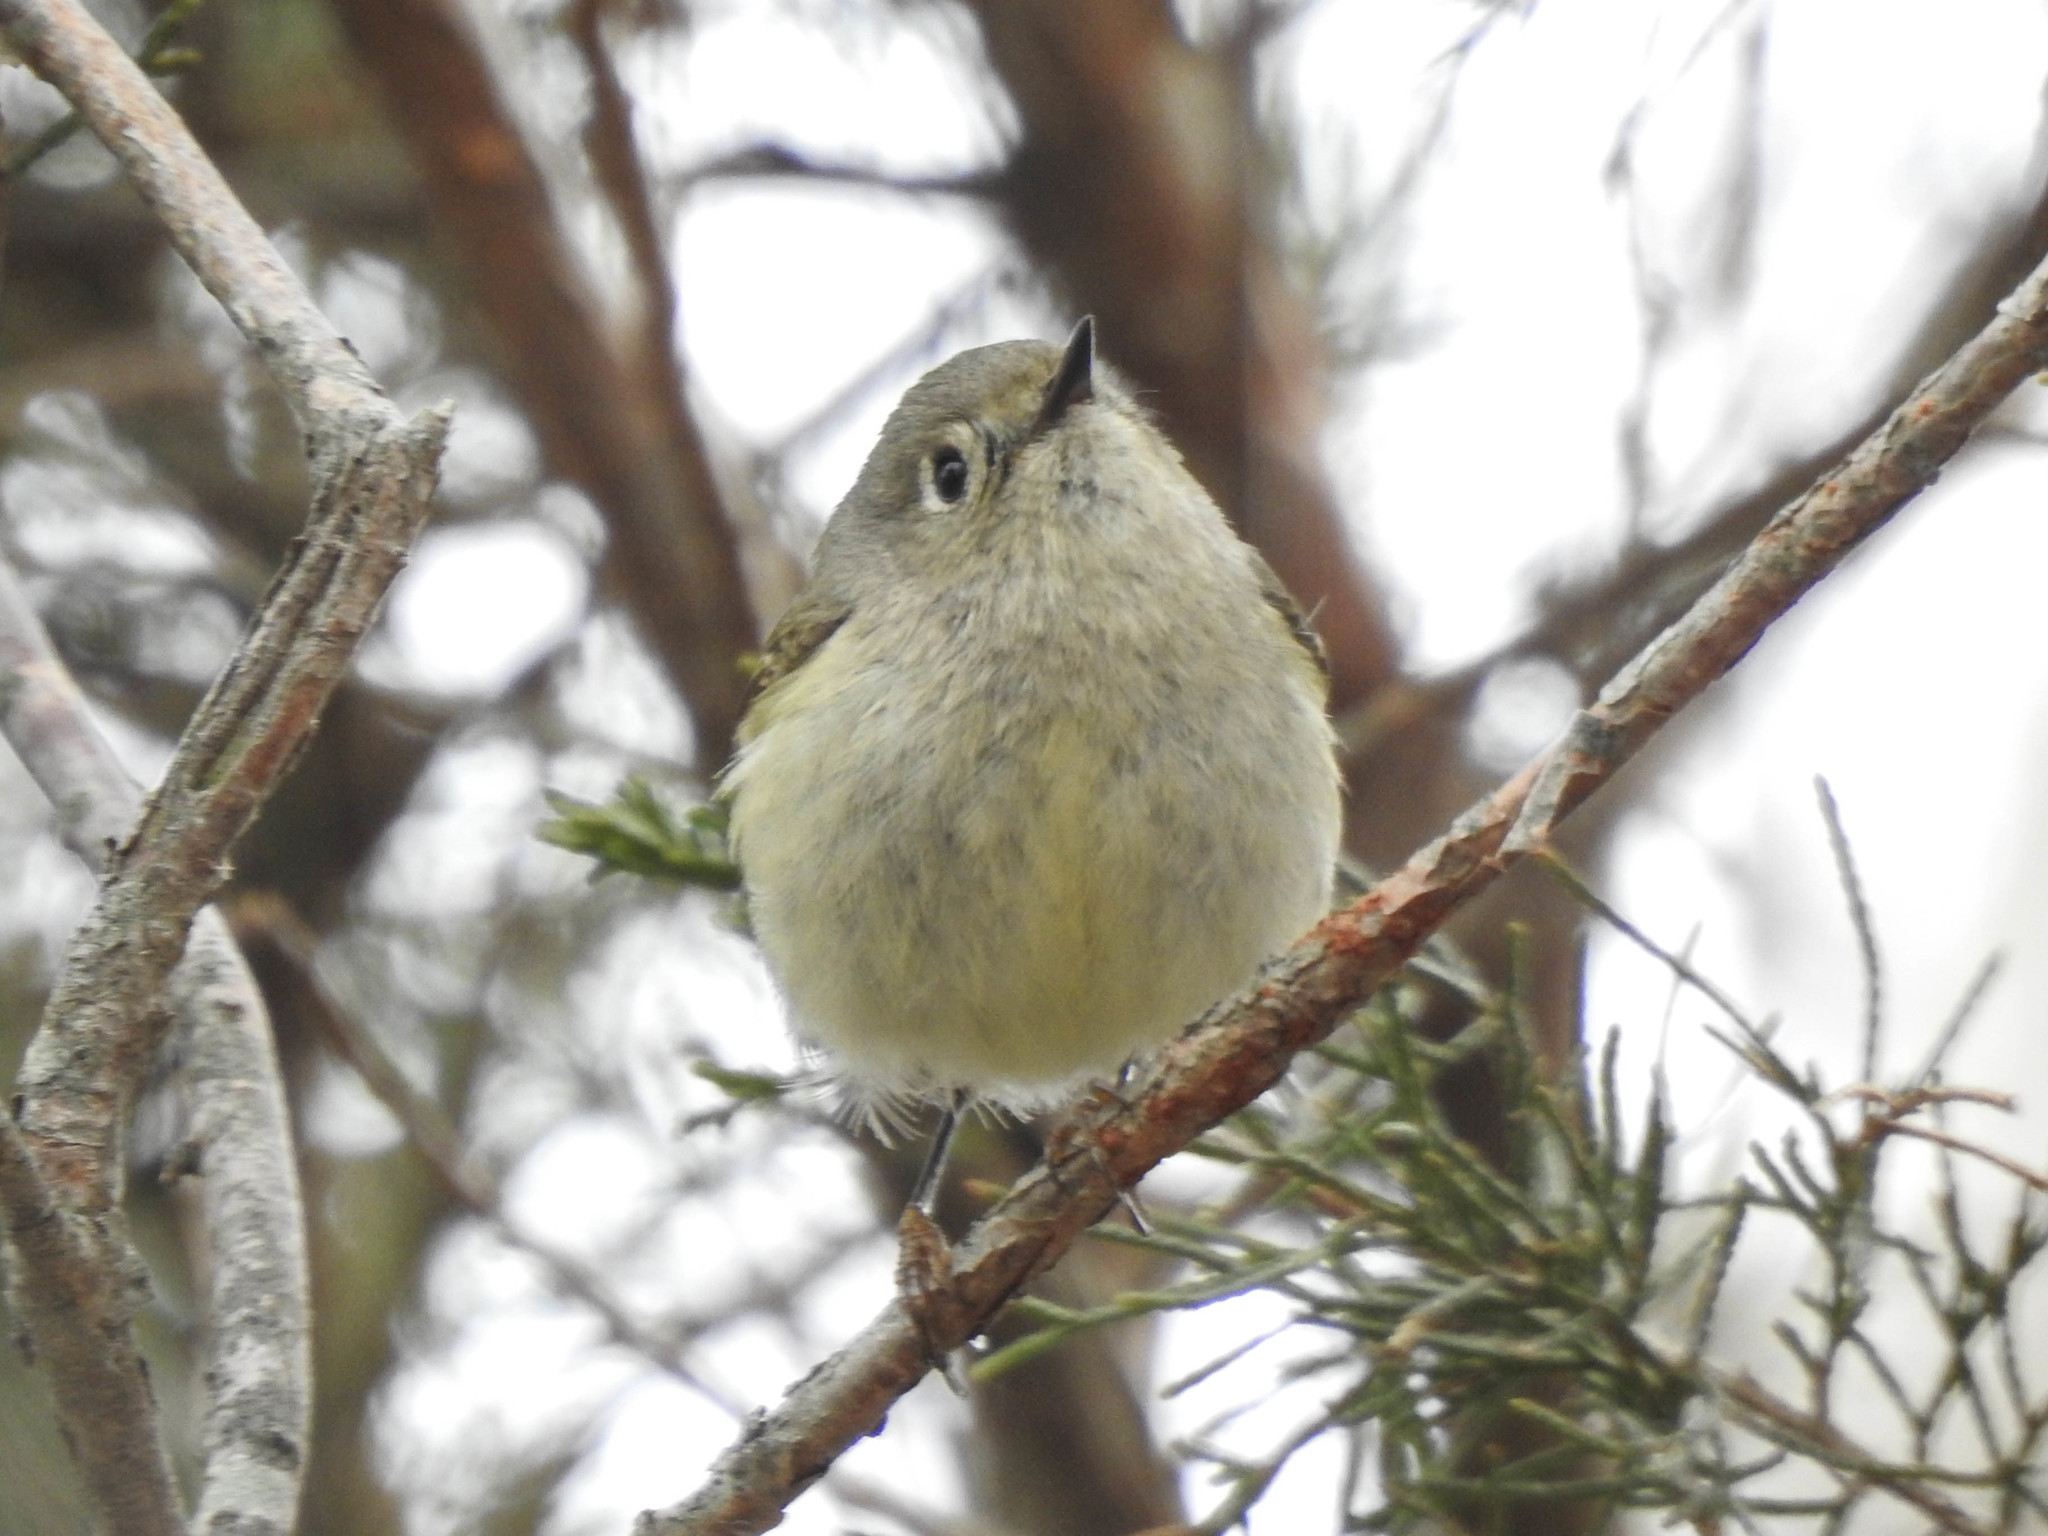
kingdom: Animalia
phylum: Chordata
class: Aves
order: Passeriformes
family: Regulidae
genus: Regulus
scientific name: Regulus calendula
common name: Ruby-crowned kinglet
